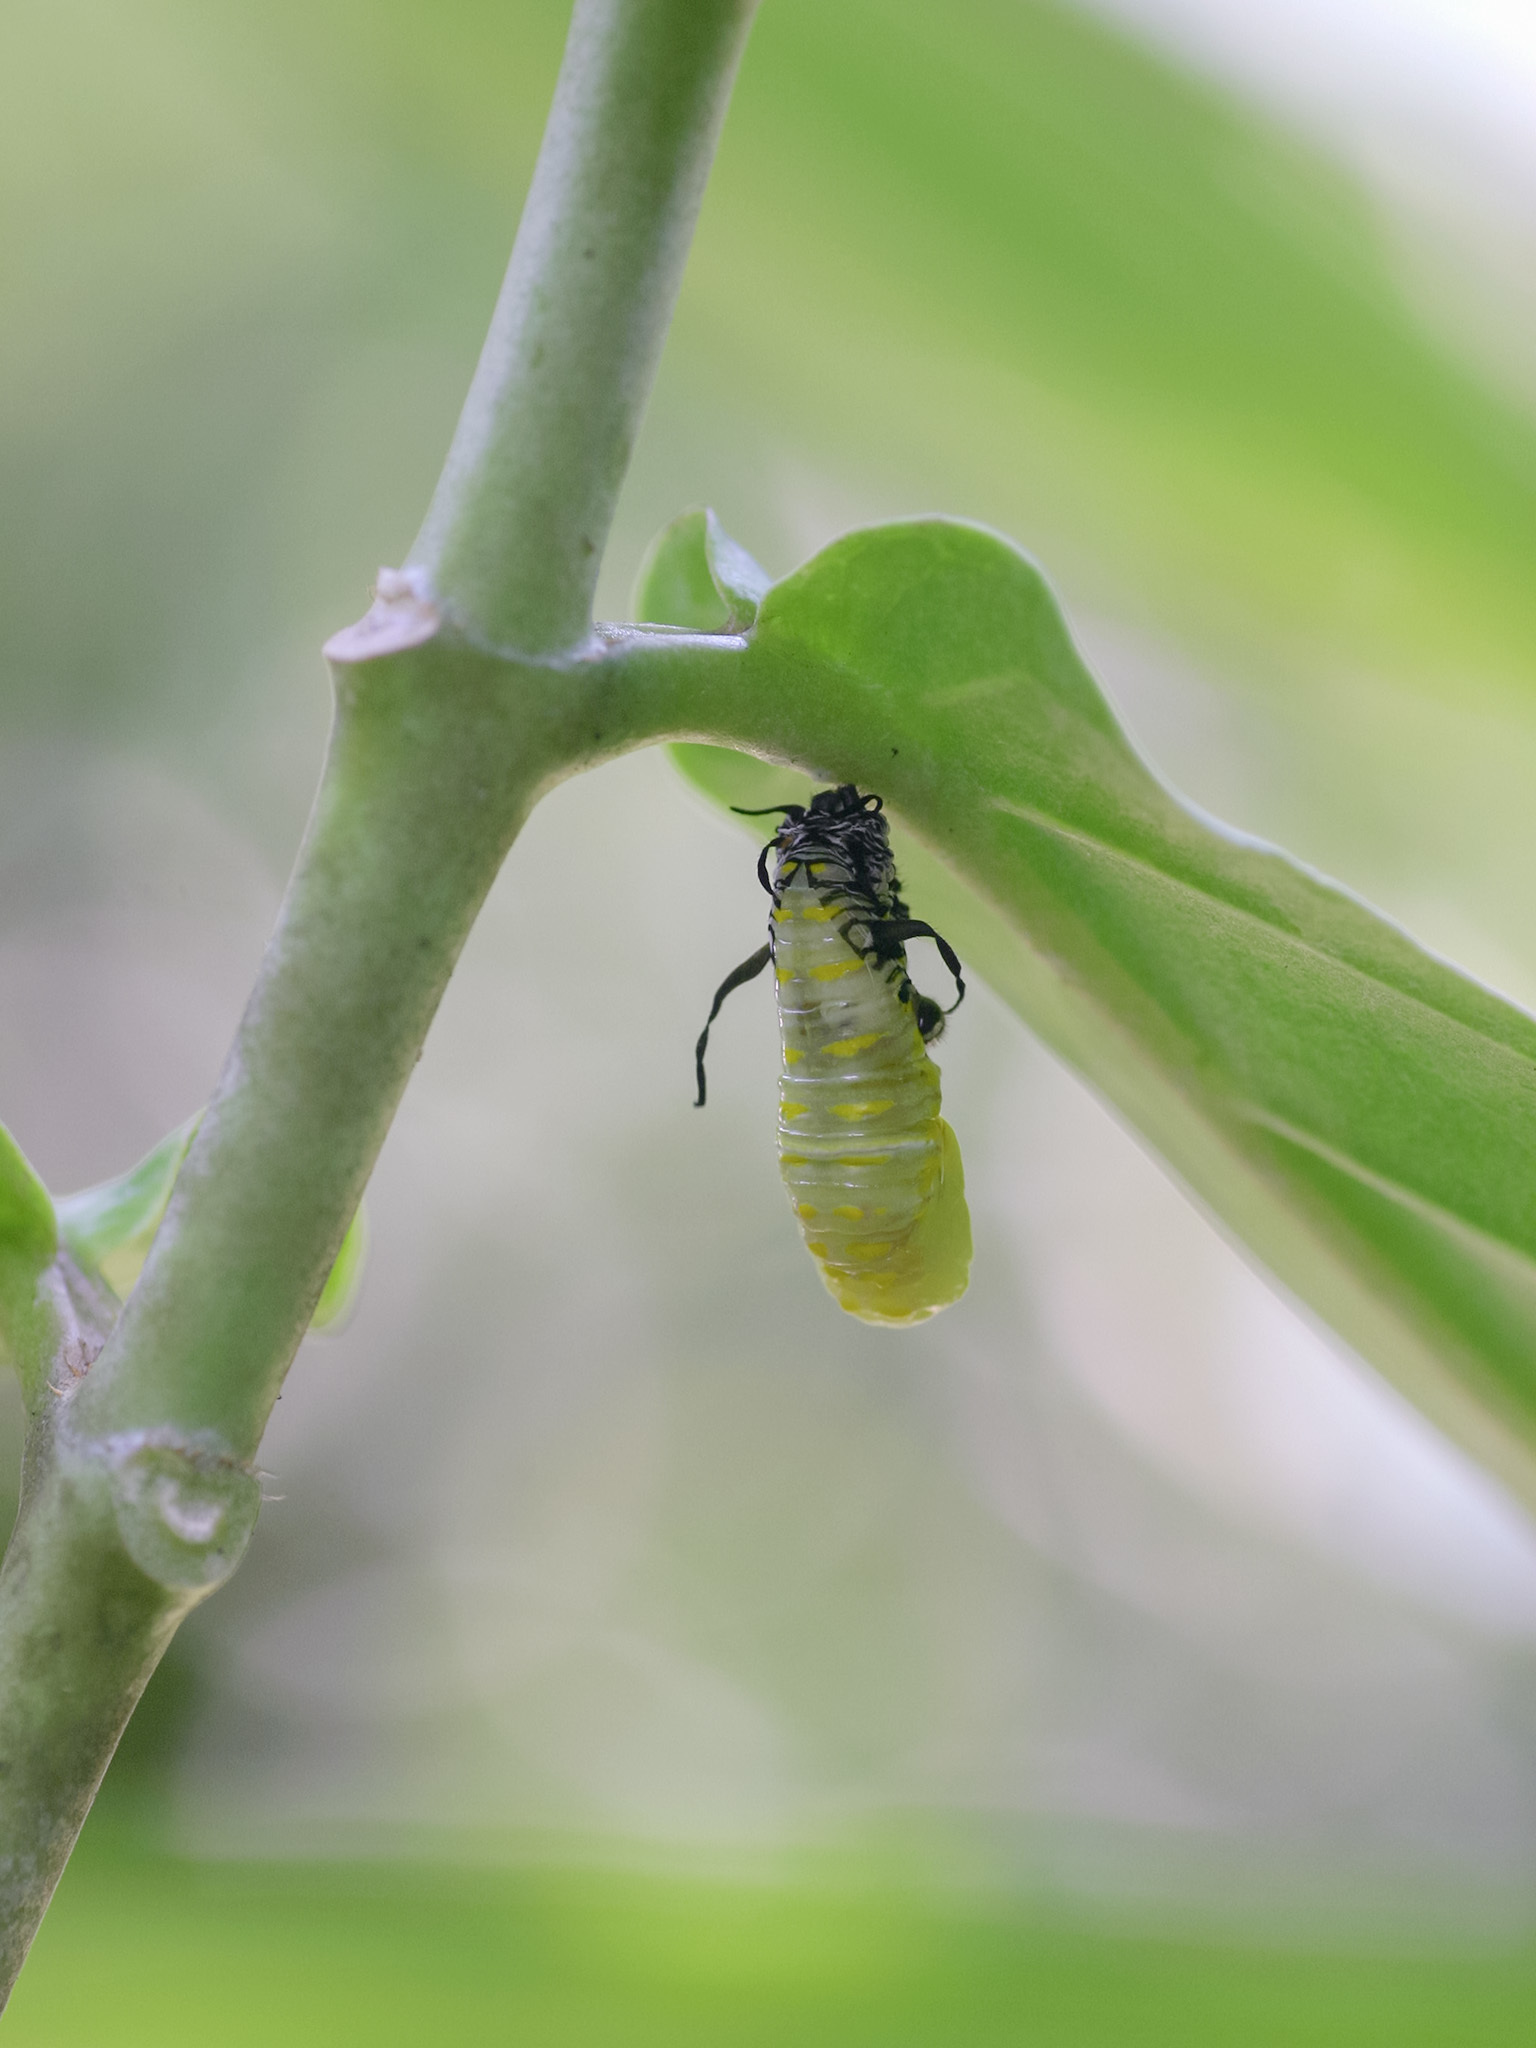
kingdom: Animalia
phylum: Arthropoda
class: Insecta
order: Lepidoptera
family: Nymphalidae
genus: Danaus
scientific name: Danaus chrysippus
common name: Plain tiger
